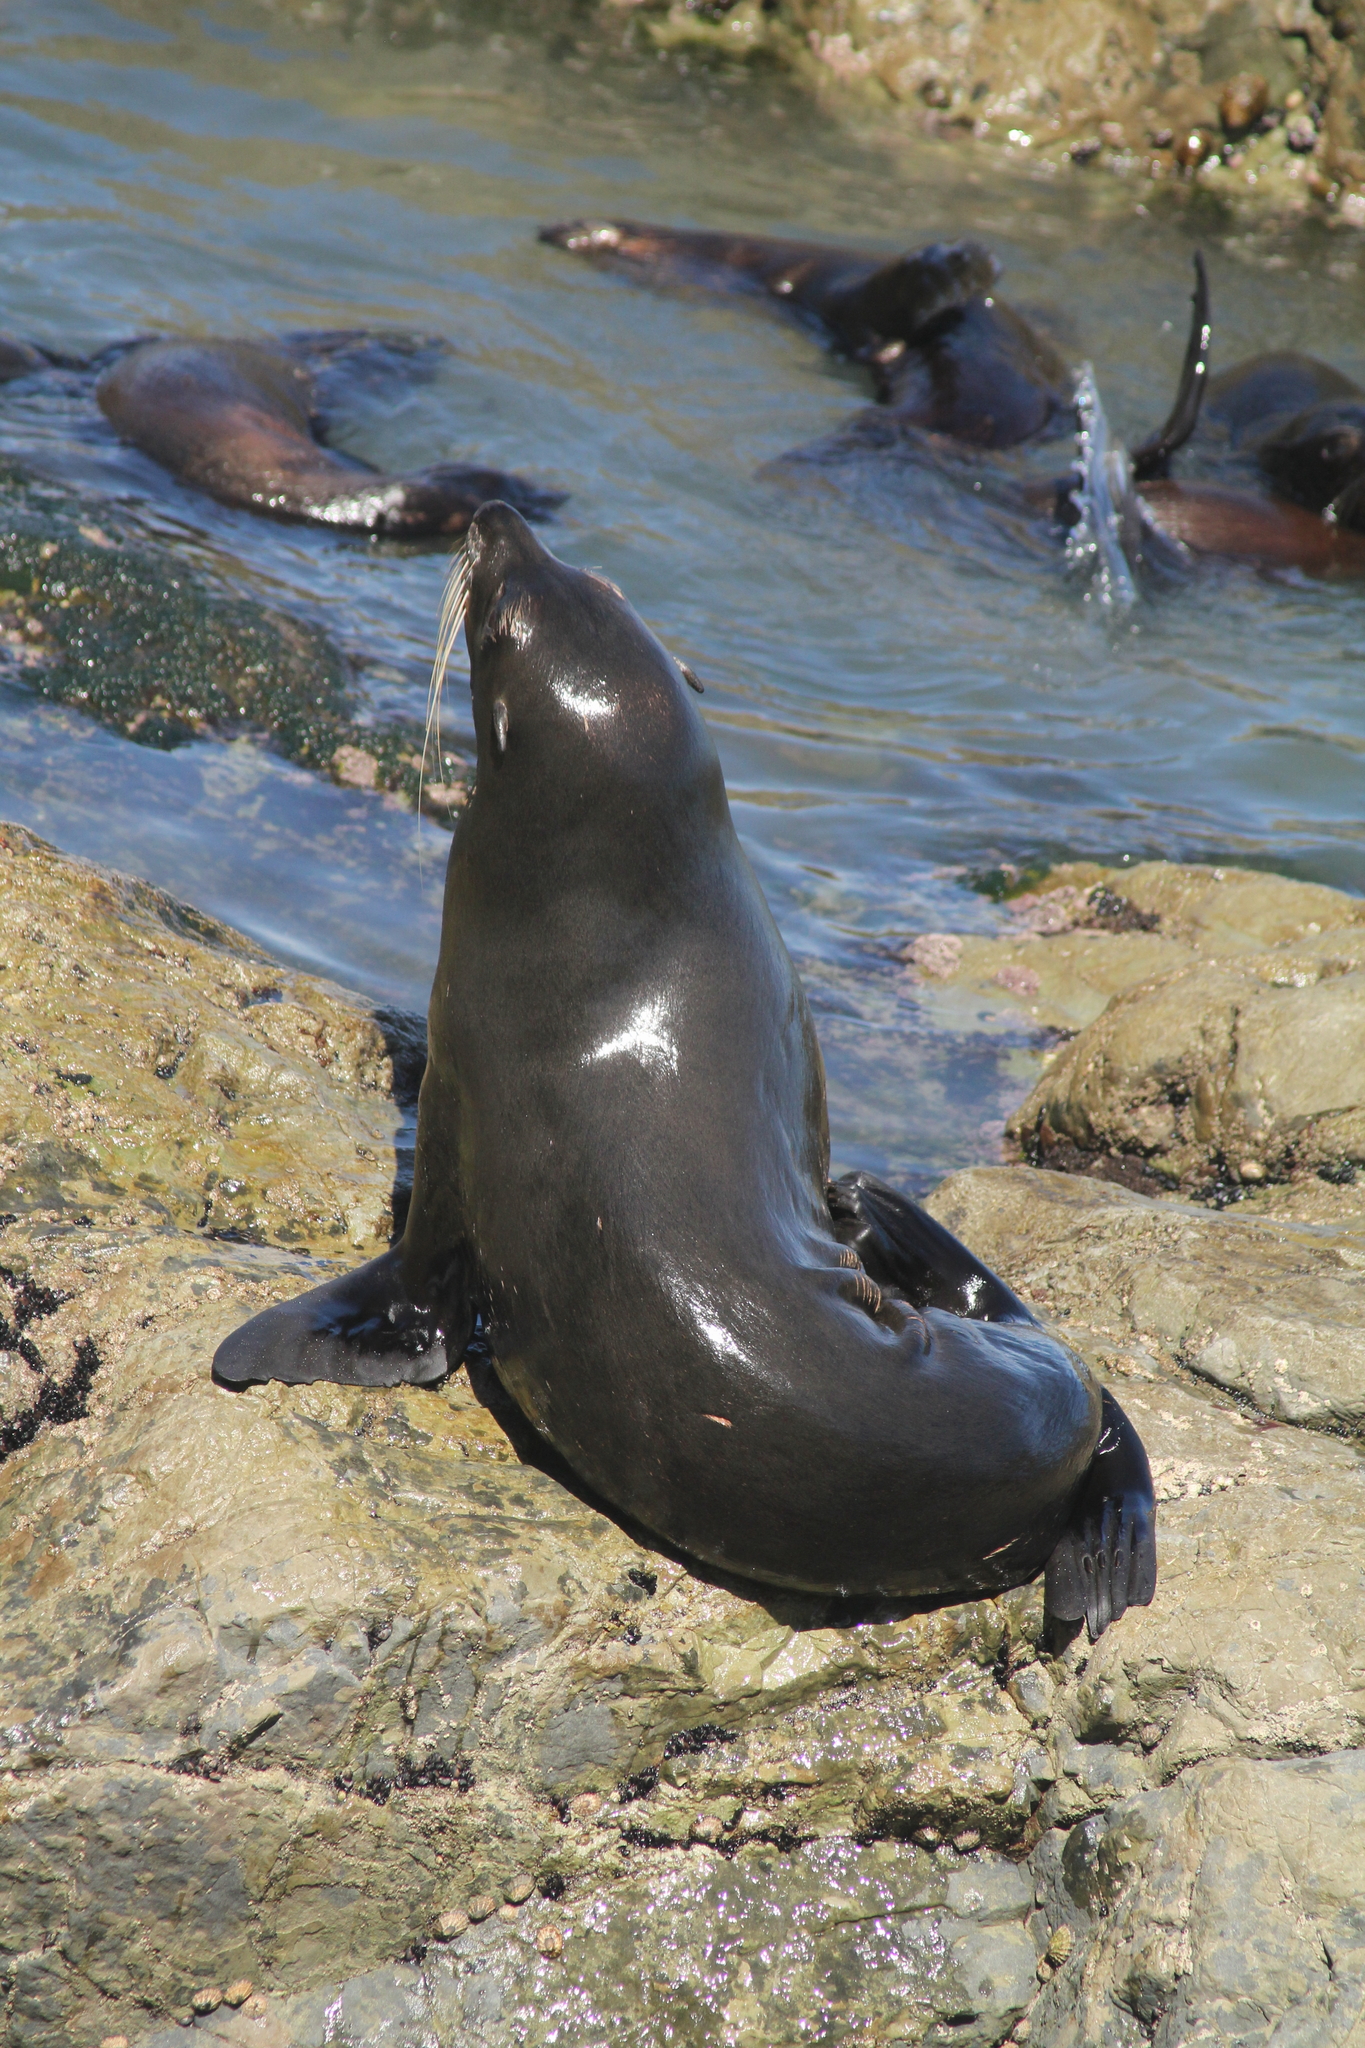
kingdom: Animalia
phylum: Chordata
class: Mammalia
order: Carnivora
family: Otariidae
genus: Arctocephalus
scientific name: Arctocephalus forsteri
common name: New zealand fur seal
